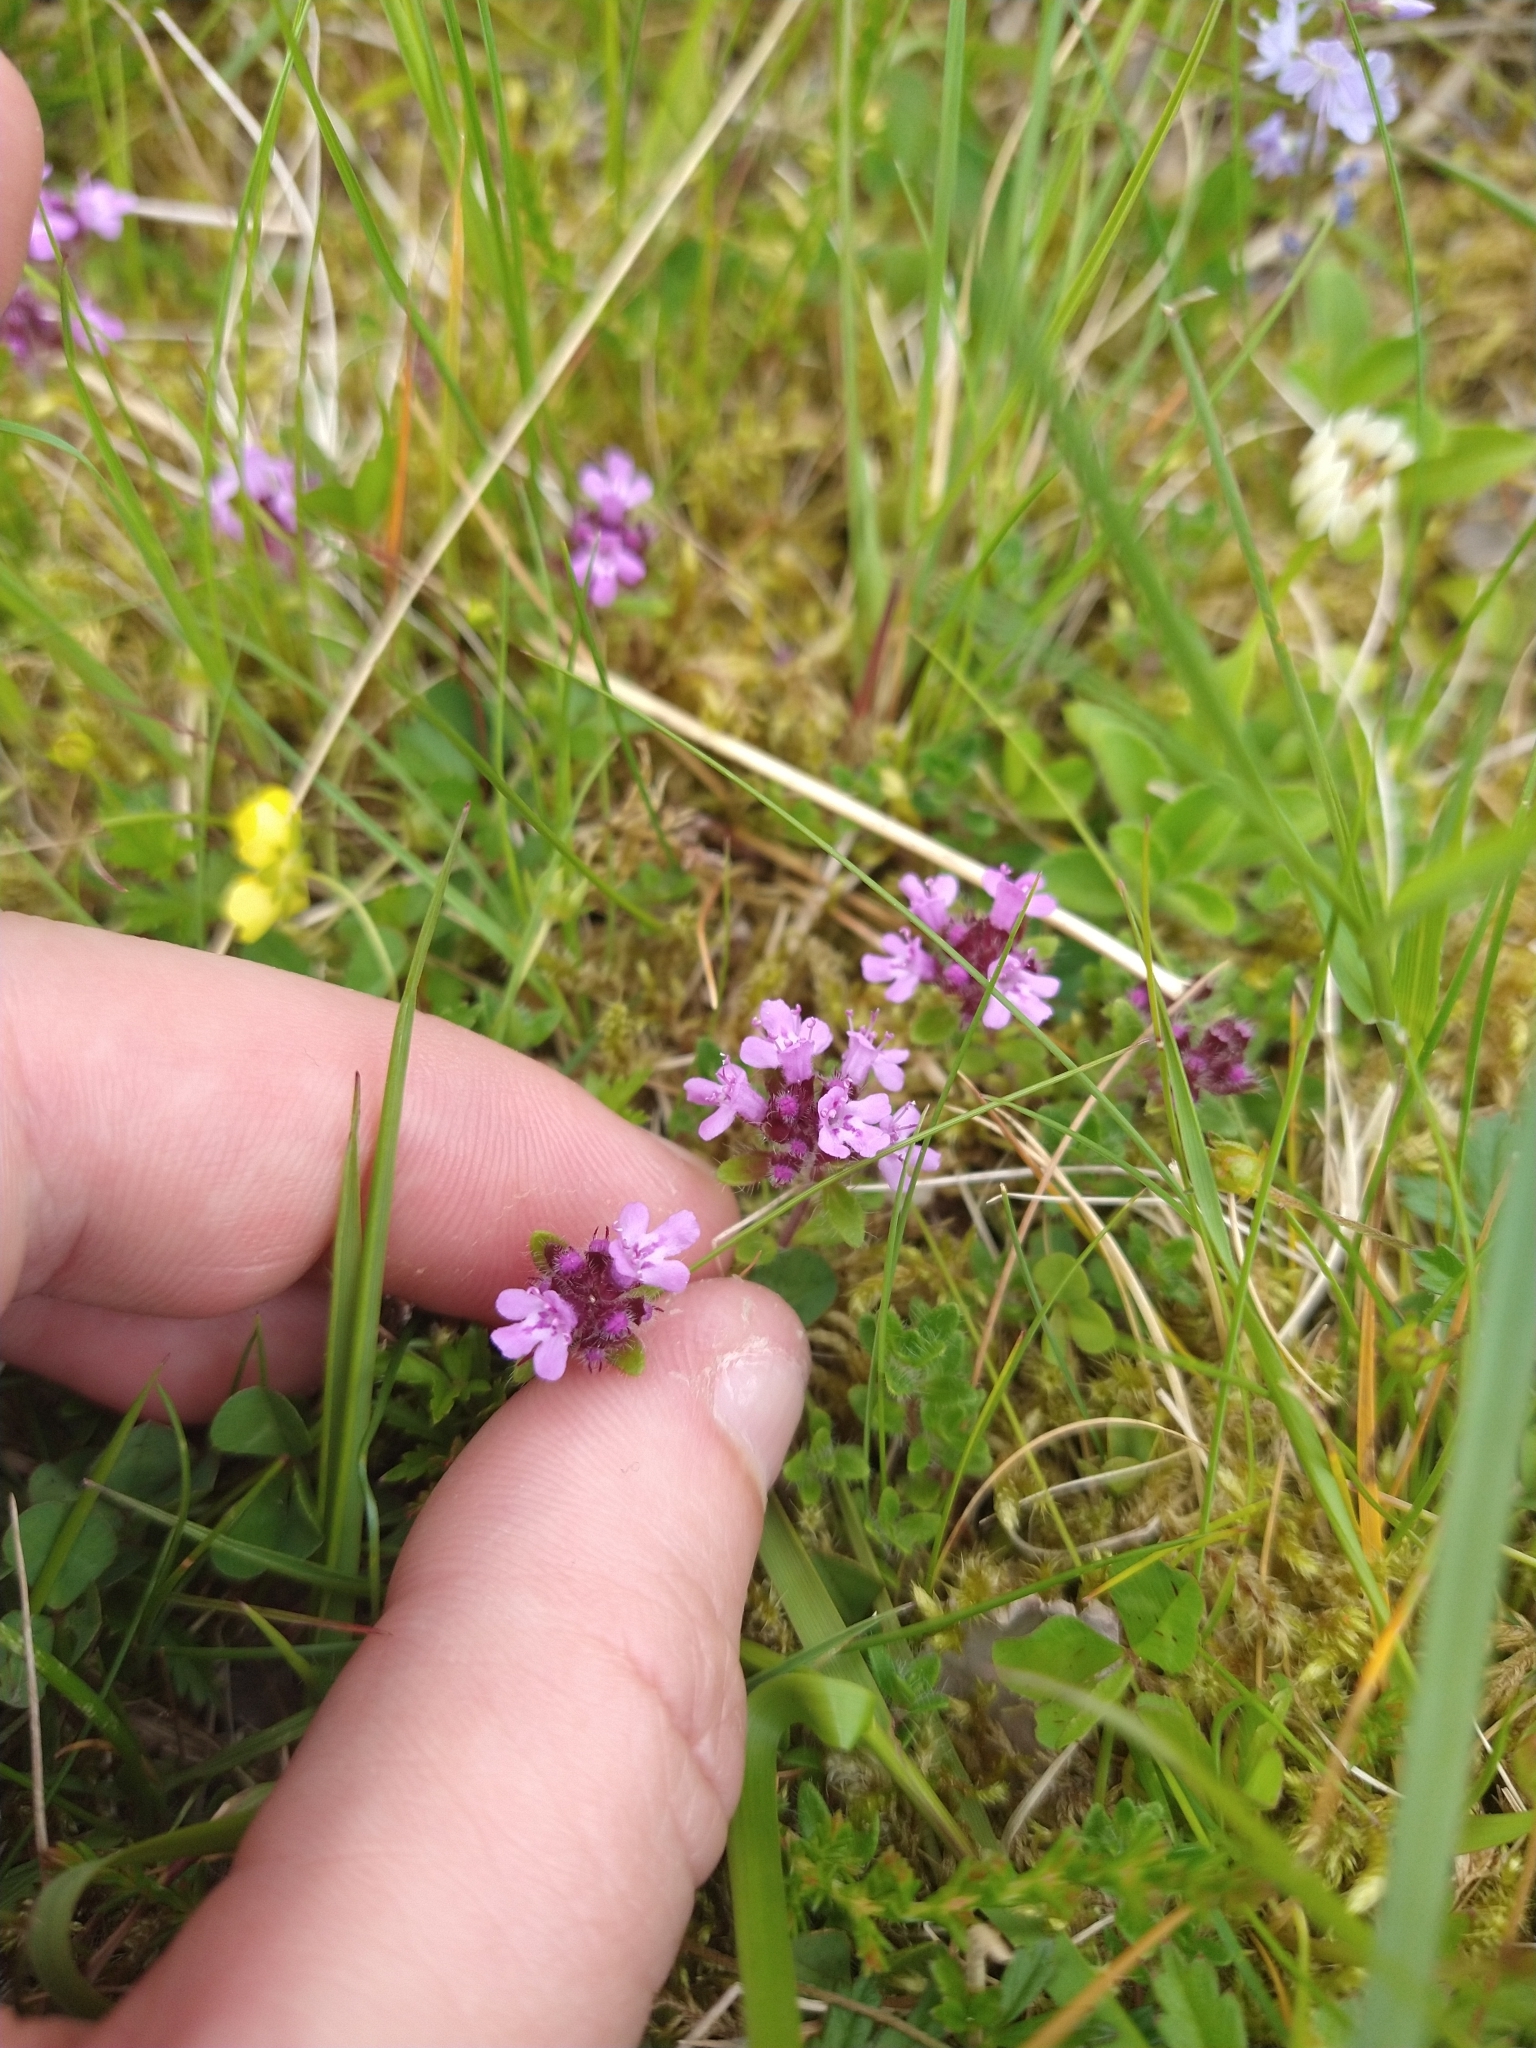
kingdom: Plantae
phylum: Tracheophyta
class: Magnoliopsida
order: Lamiales
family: Lamiaceae
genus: Thymus
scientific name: Thymus praecox
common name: Wild thyme
